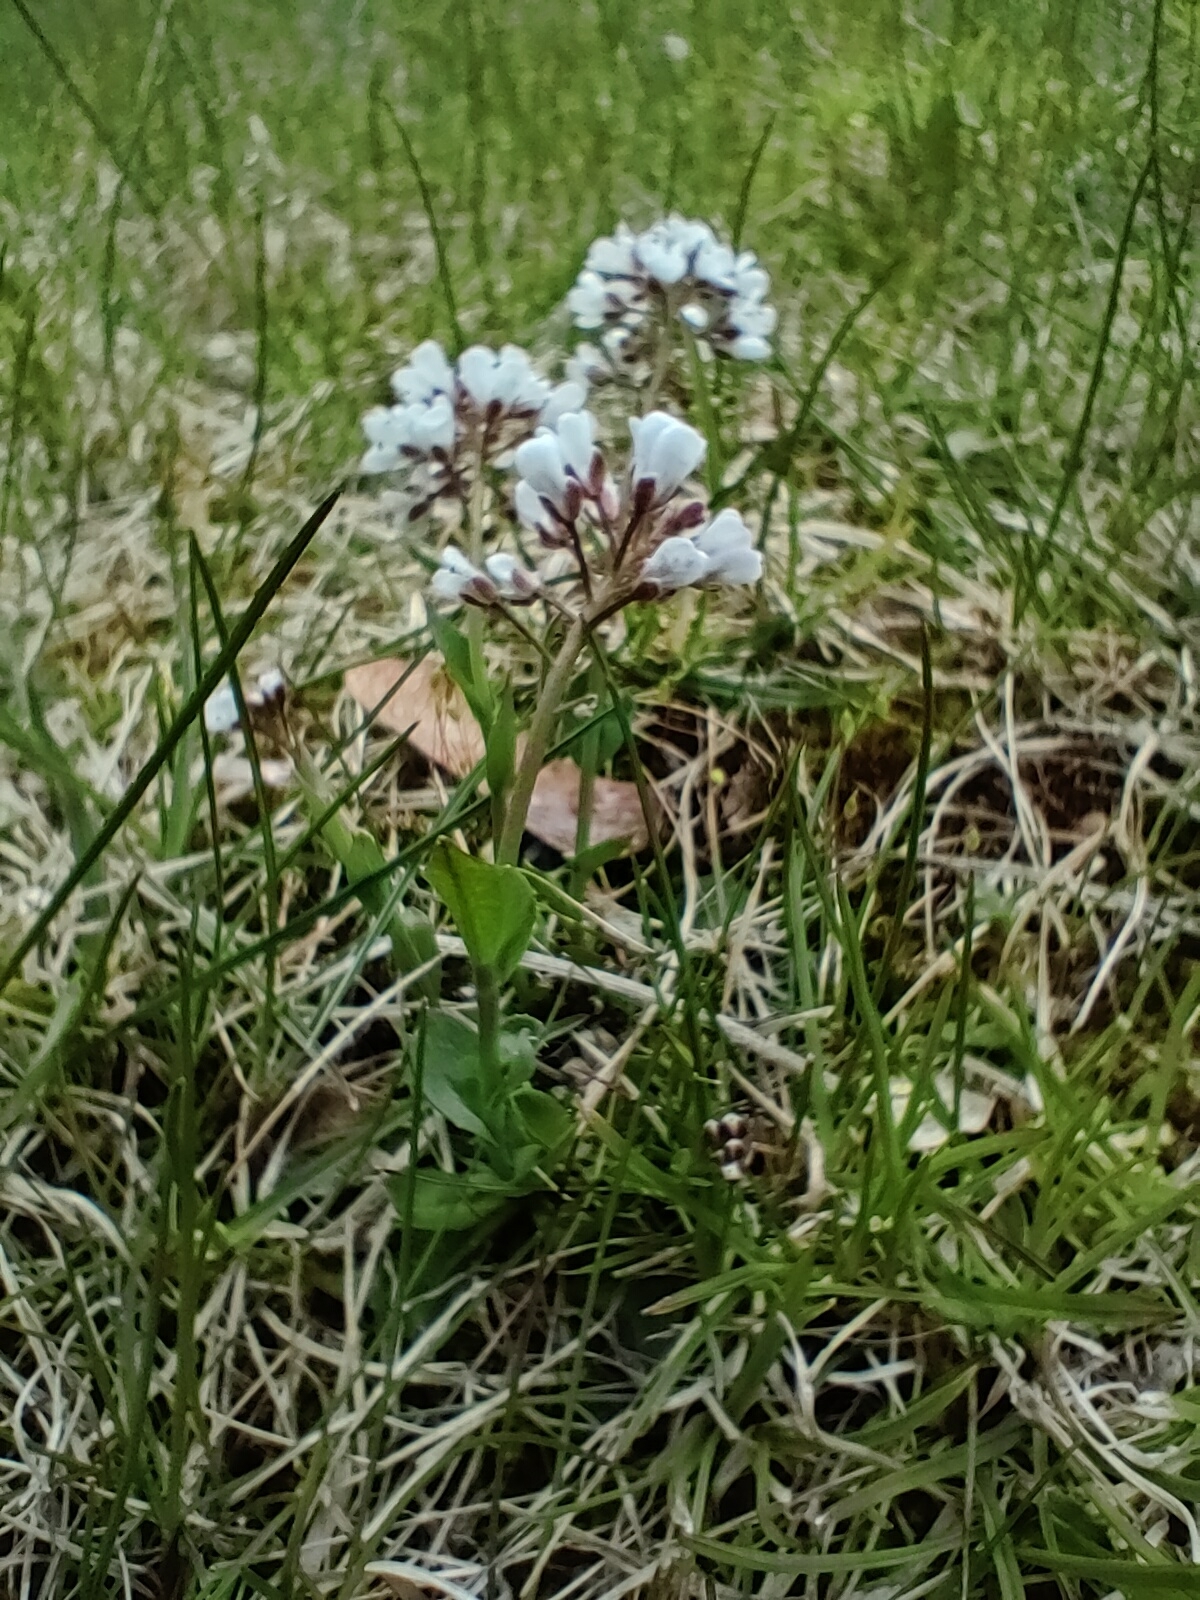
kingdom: Plantae
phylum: Tracheophyta
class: Magnoliopsida
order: Brassicales
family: Brassicaceae
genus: Noccaea
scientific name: Noccaea caerulescens
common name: Alpine pennycress
